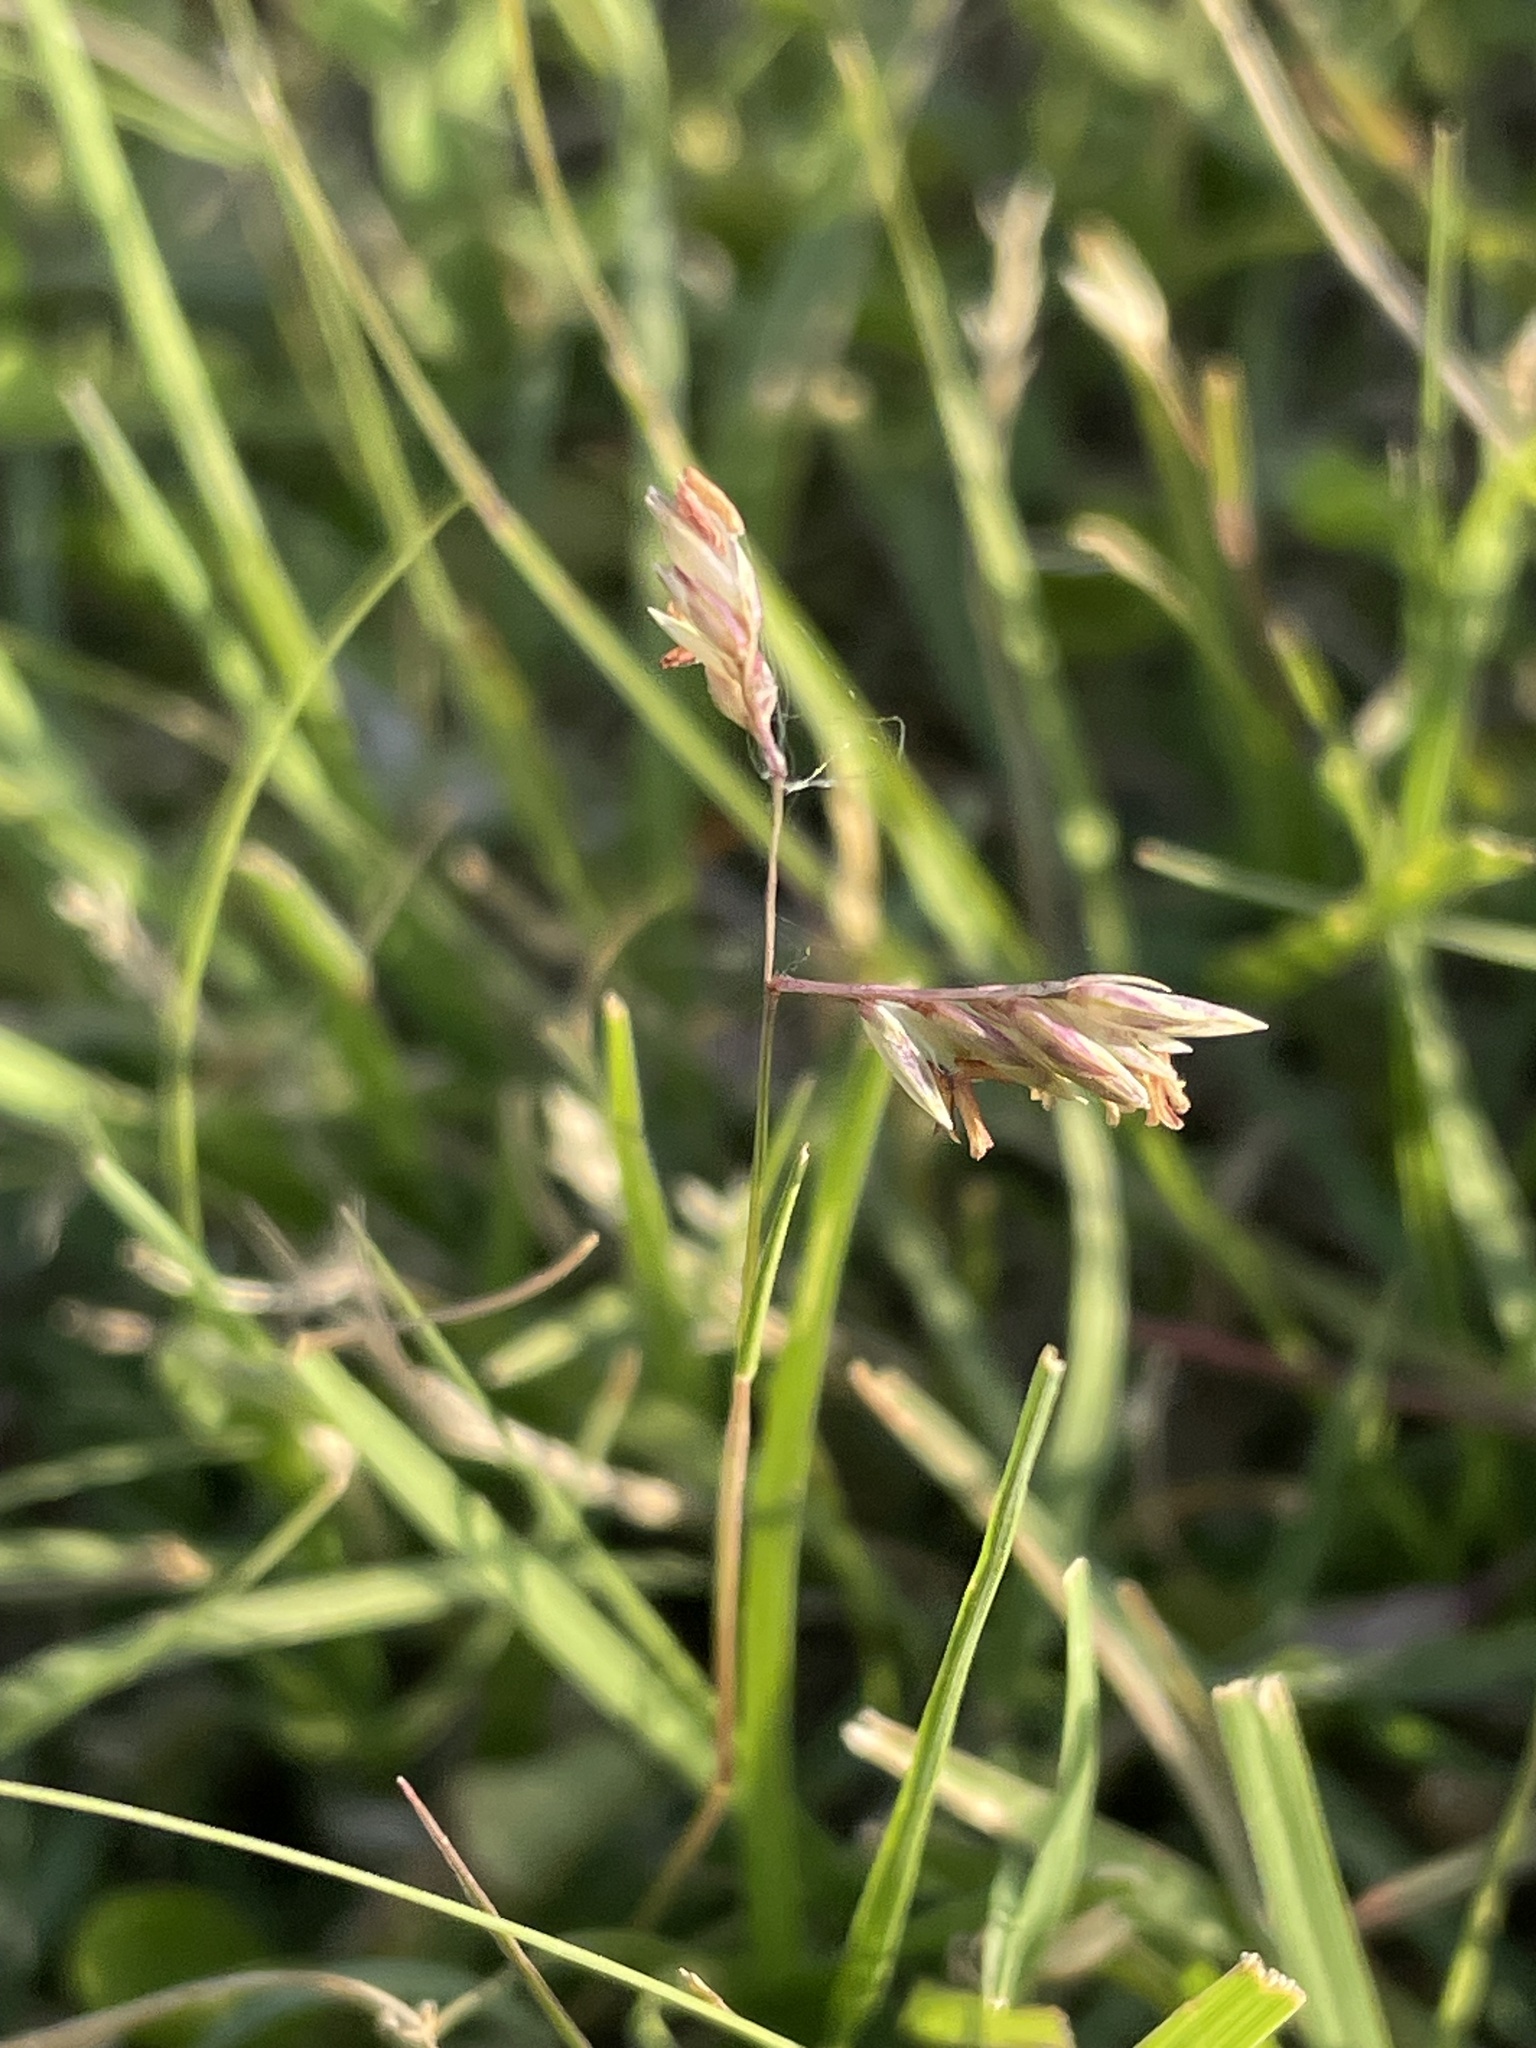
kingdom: Plantae
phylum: Tracheophyta
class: Liliopsida
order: Poales
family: Poaceae
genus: Bouteloua
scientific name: Bouteloua dactyloides
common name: Buffalo grass
